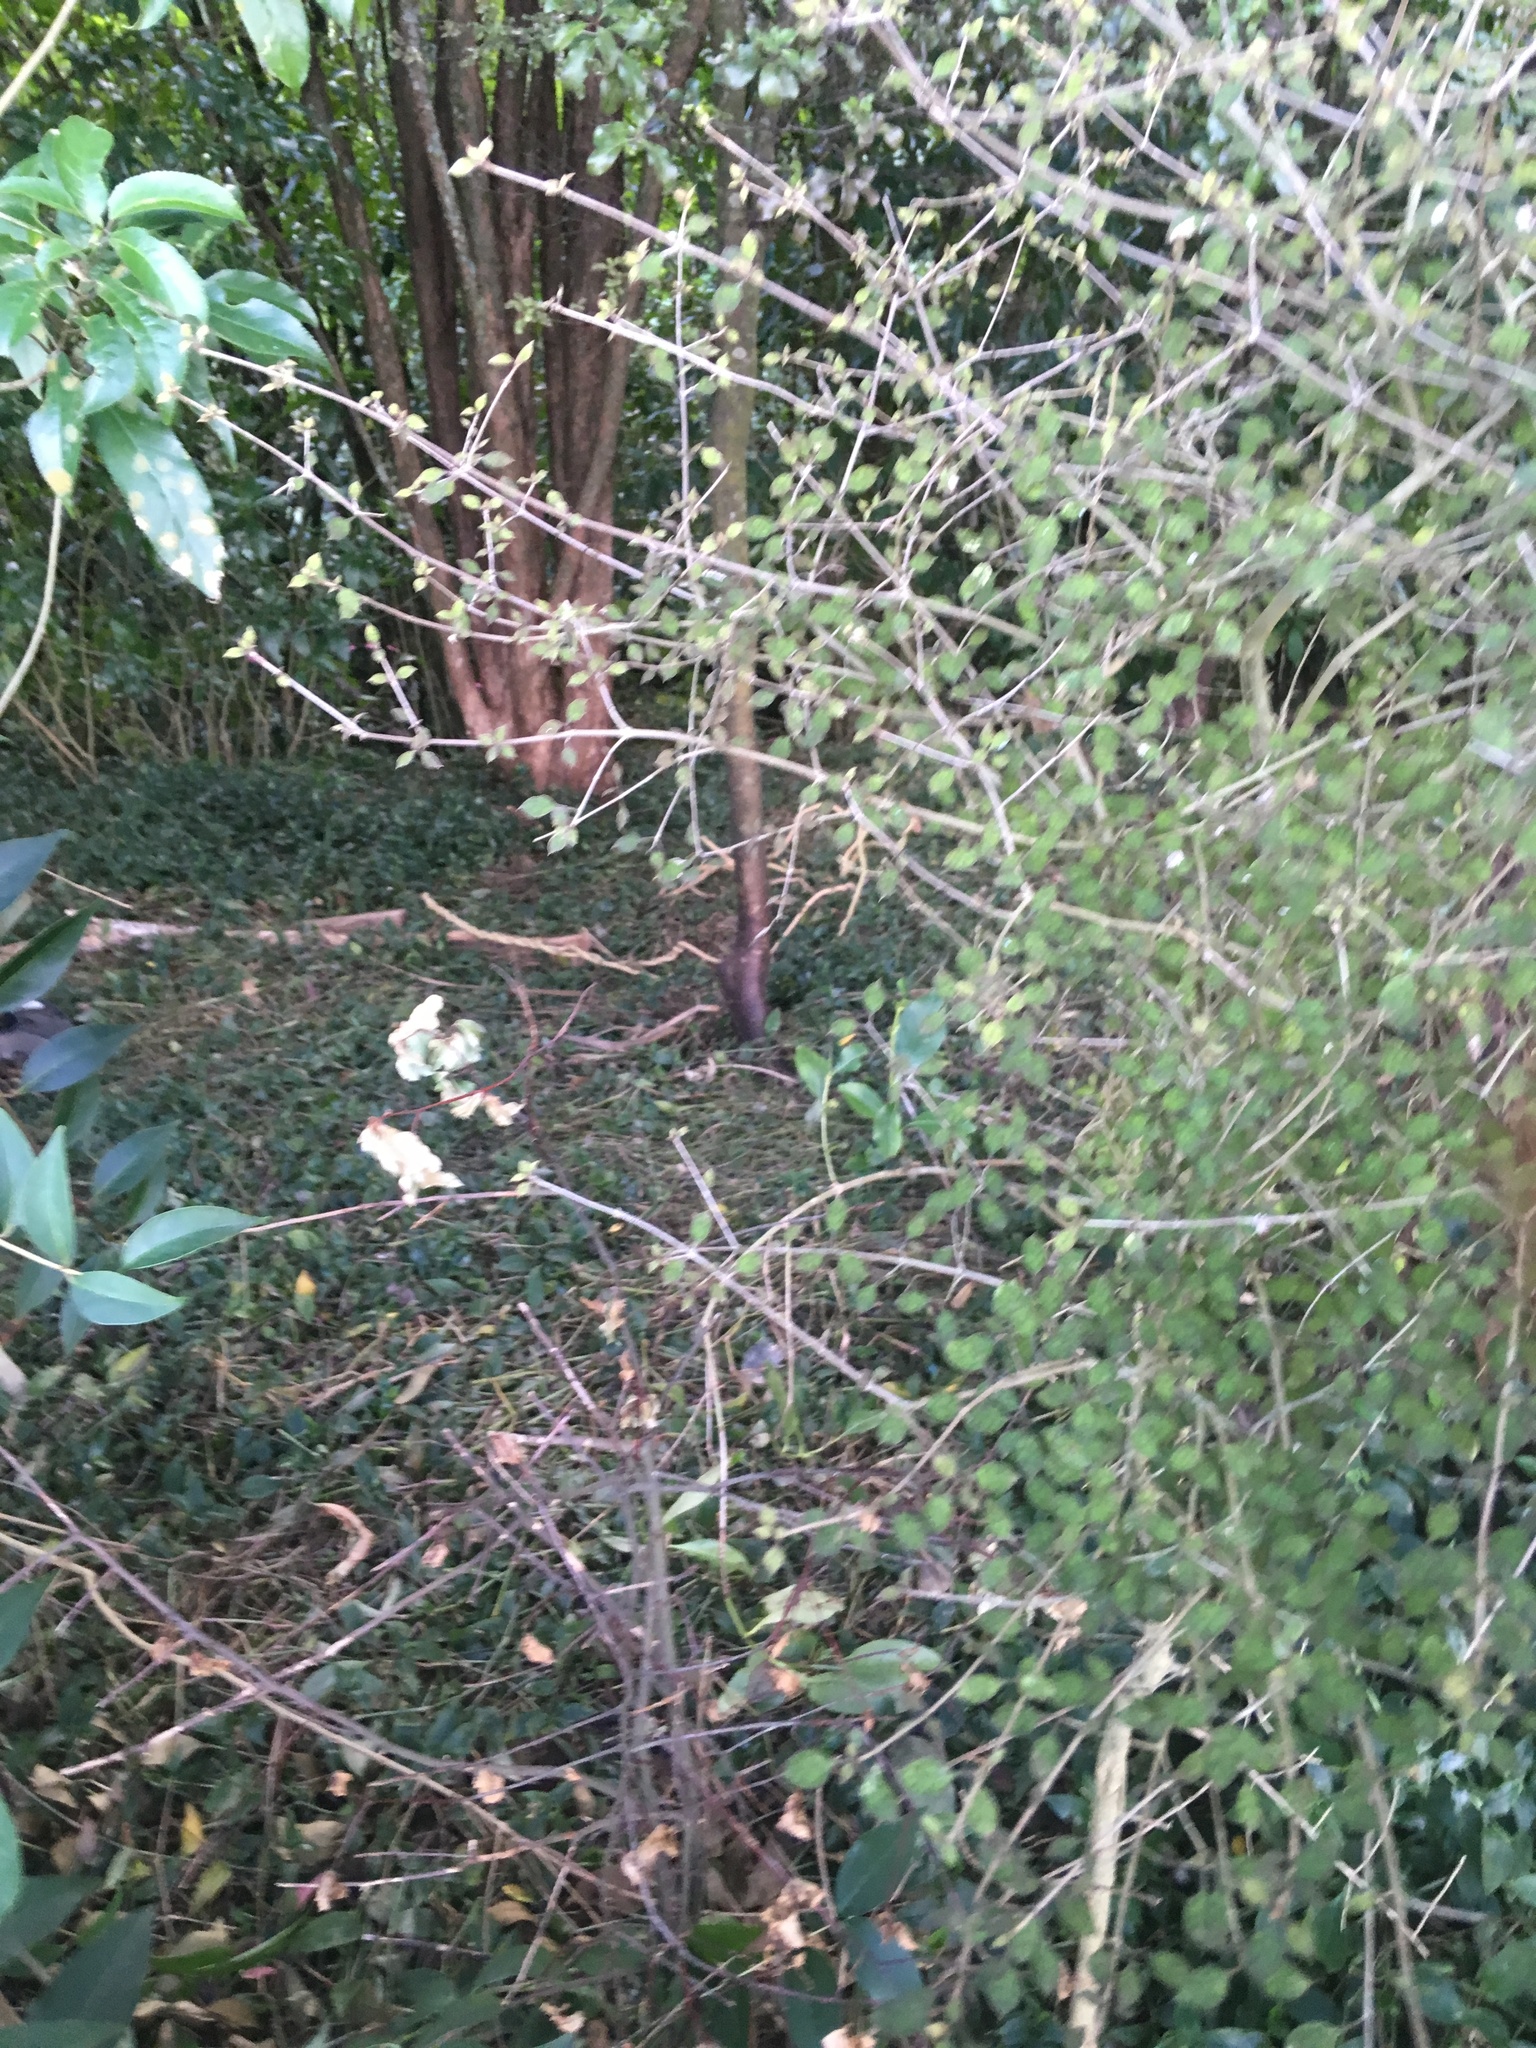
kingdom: Plantae
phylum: Tracheophyta
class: Magnoliopsida
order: Gentianales
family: Rubiaceae
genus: Coprosma
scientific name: Coprosma areolata
